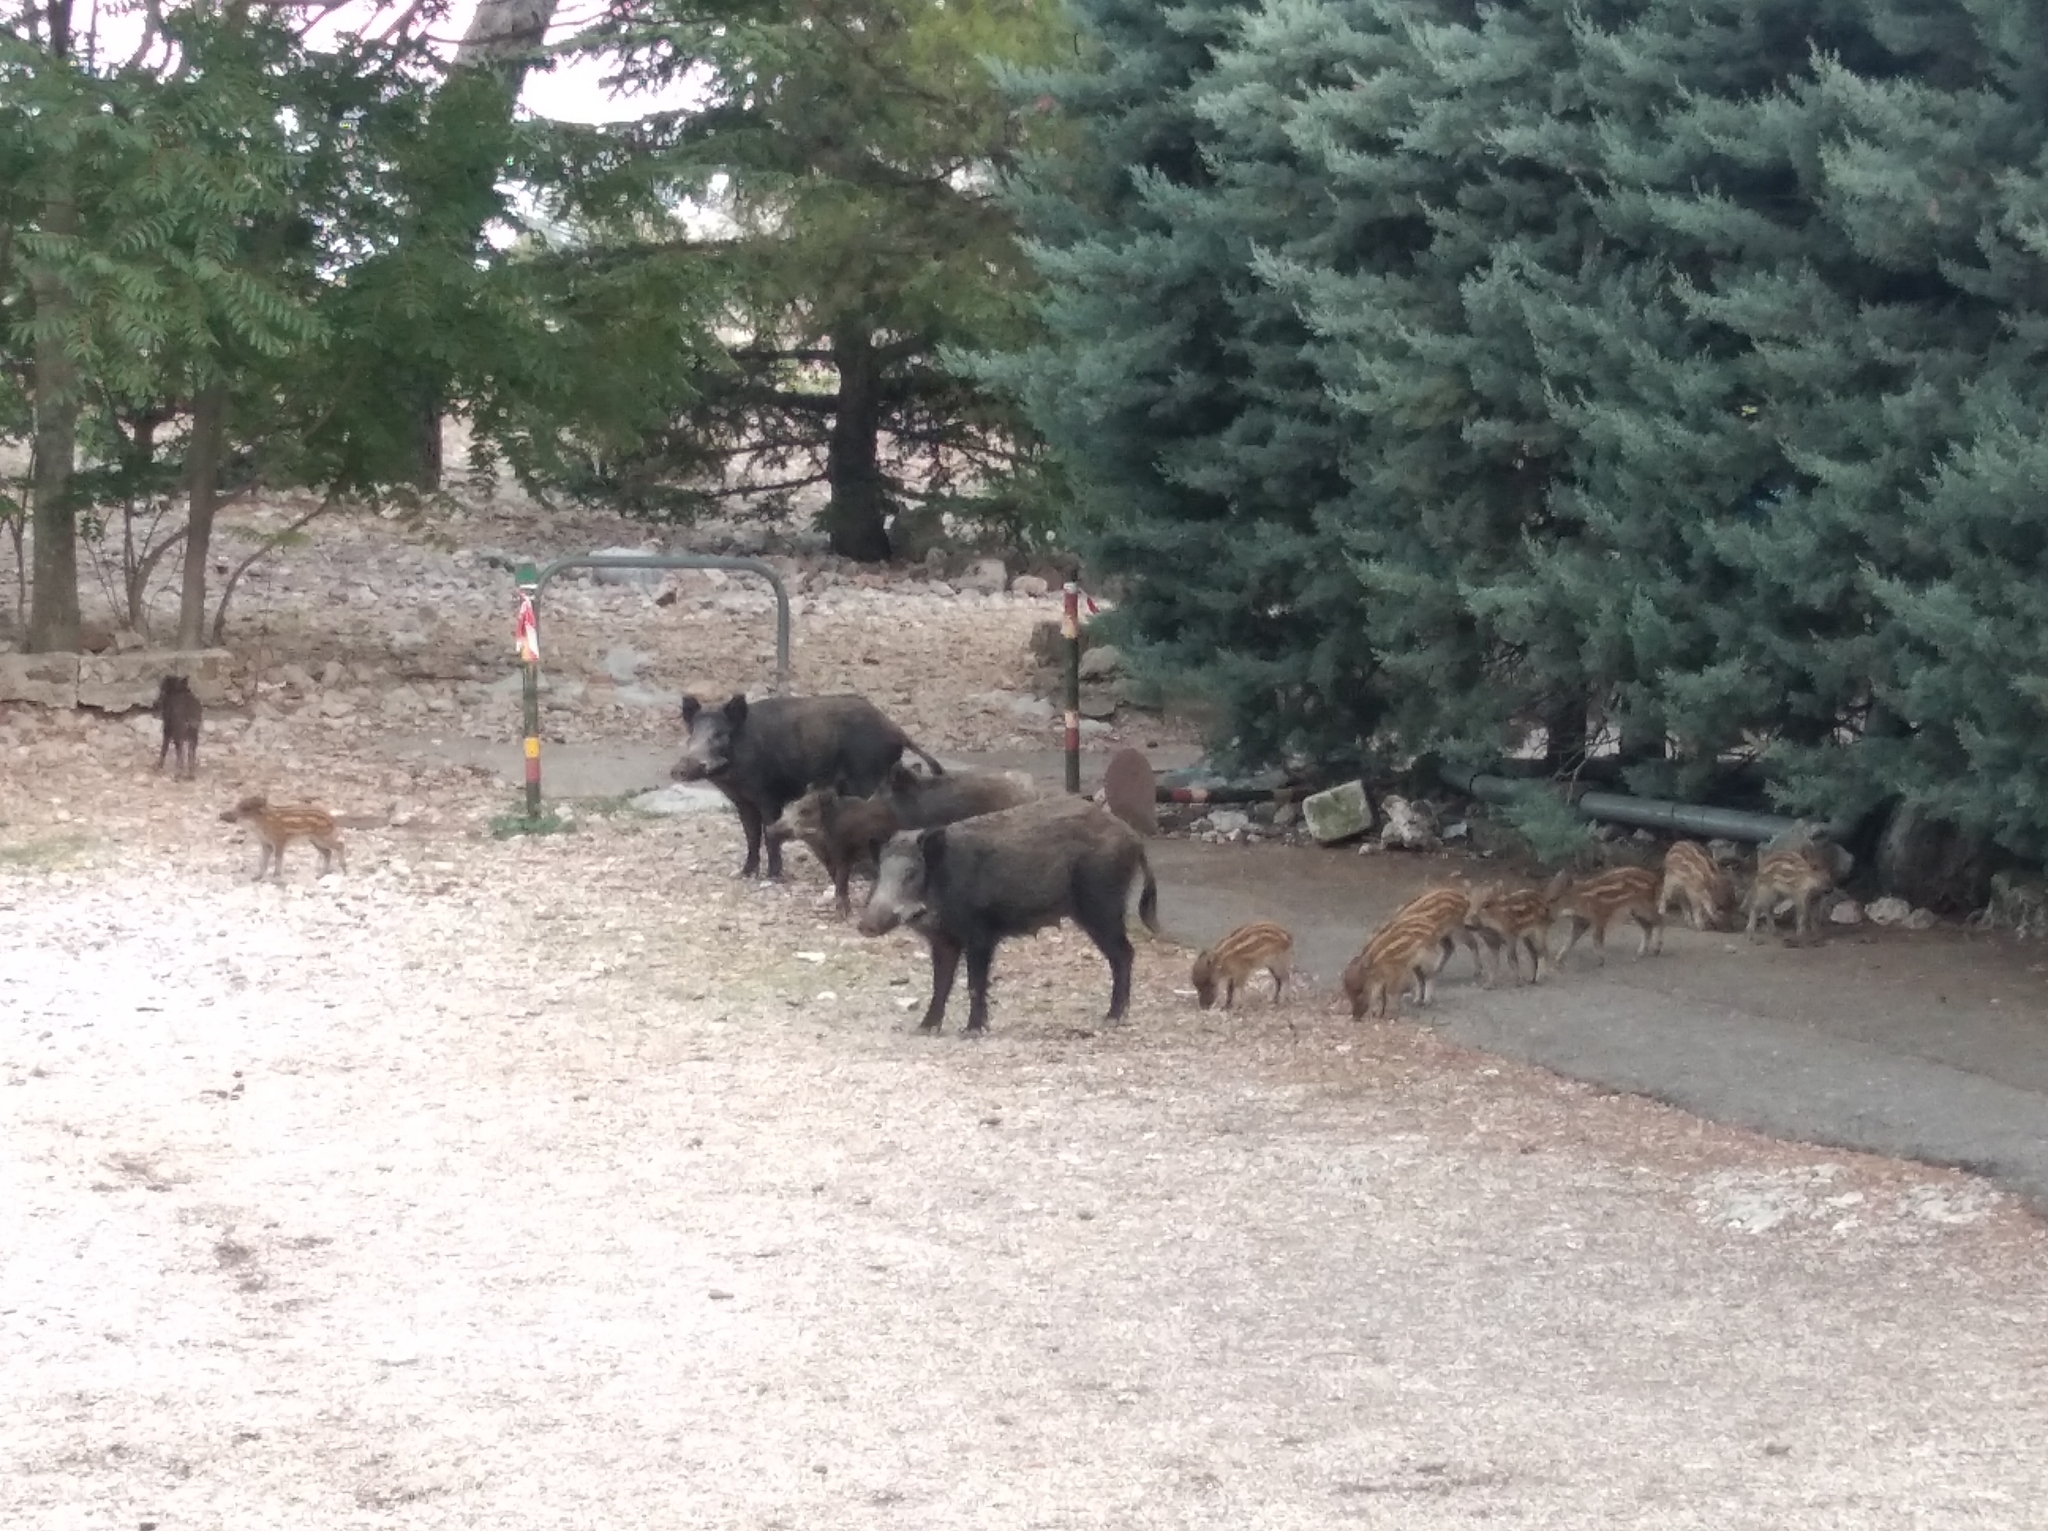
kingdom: Animalia
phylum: Chordata
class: Mammalia
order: Artiodactyla
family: Suidae
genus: Sus
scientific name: Sus scrofa
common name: Wild boar
